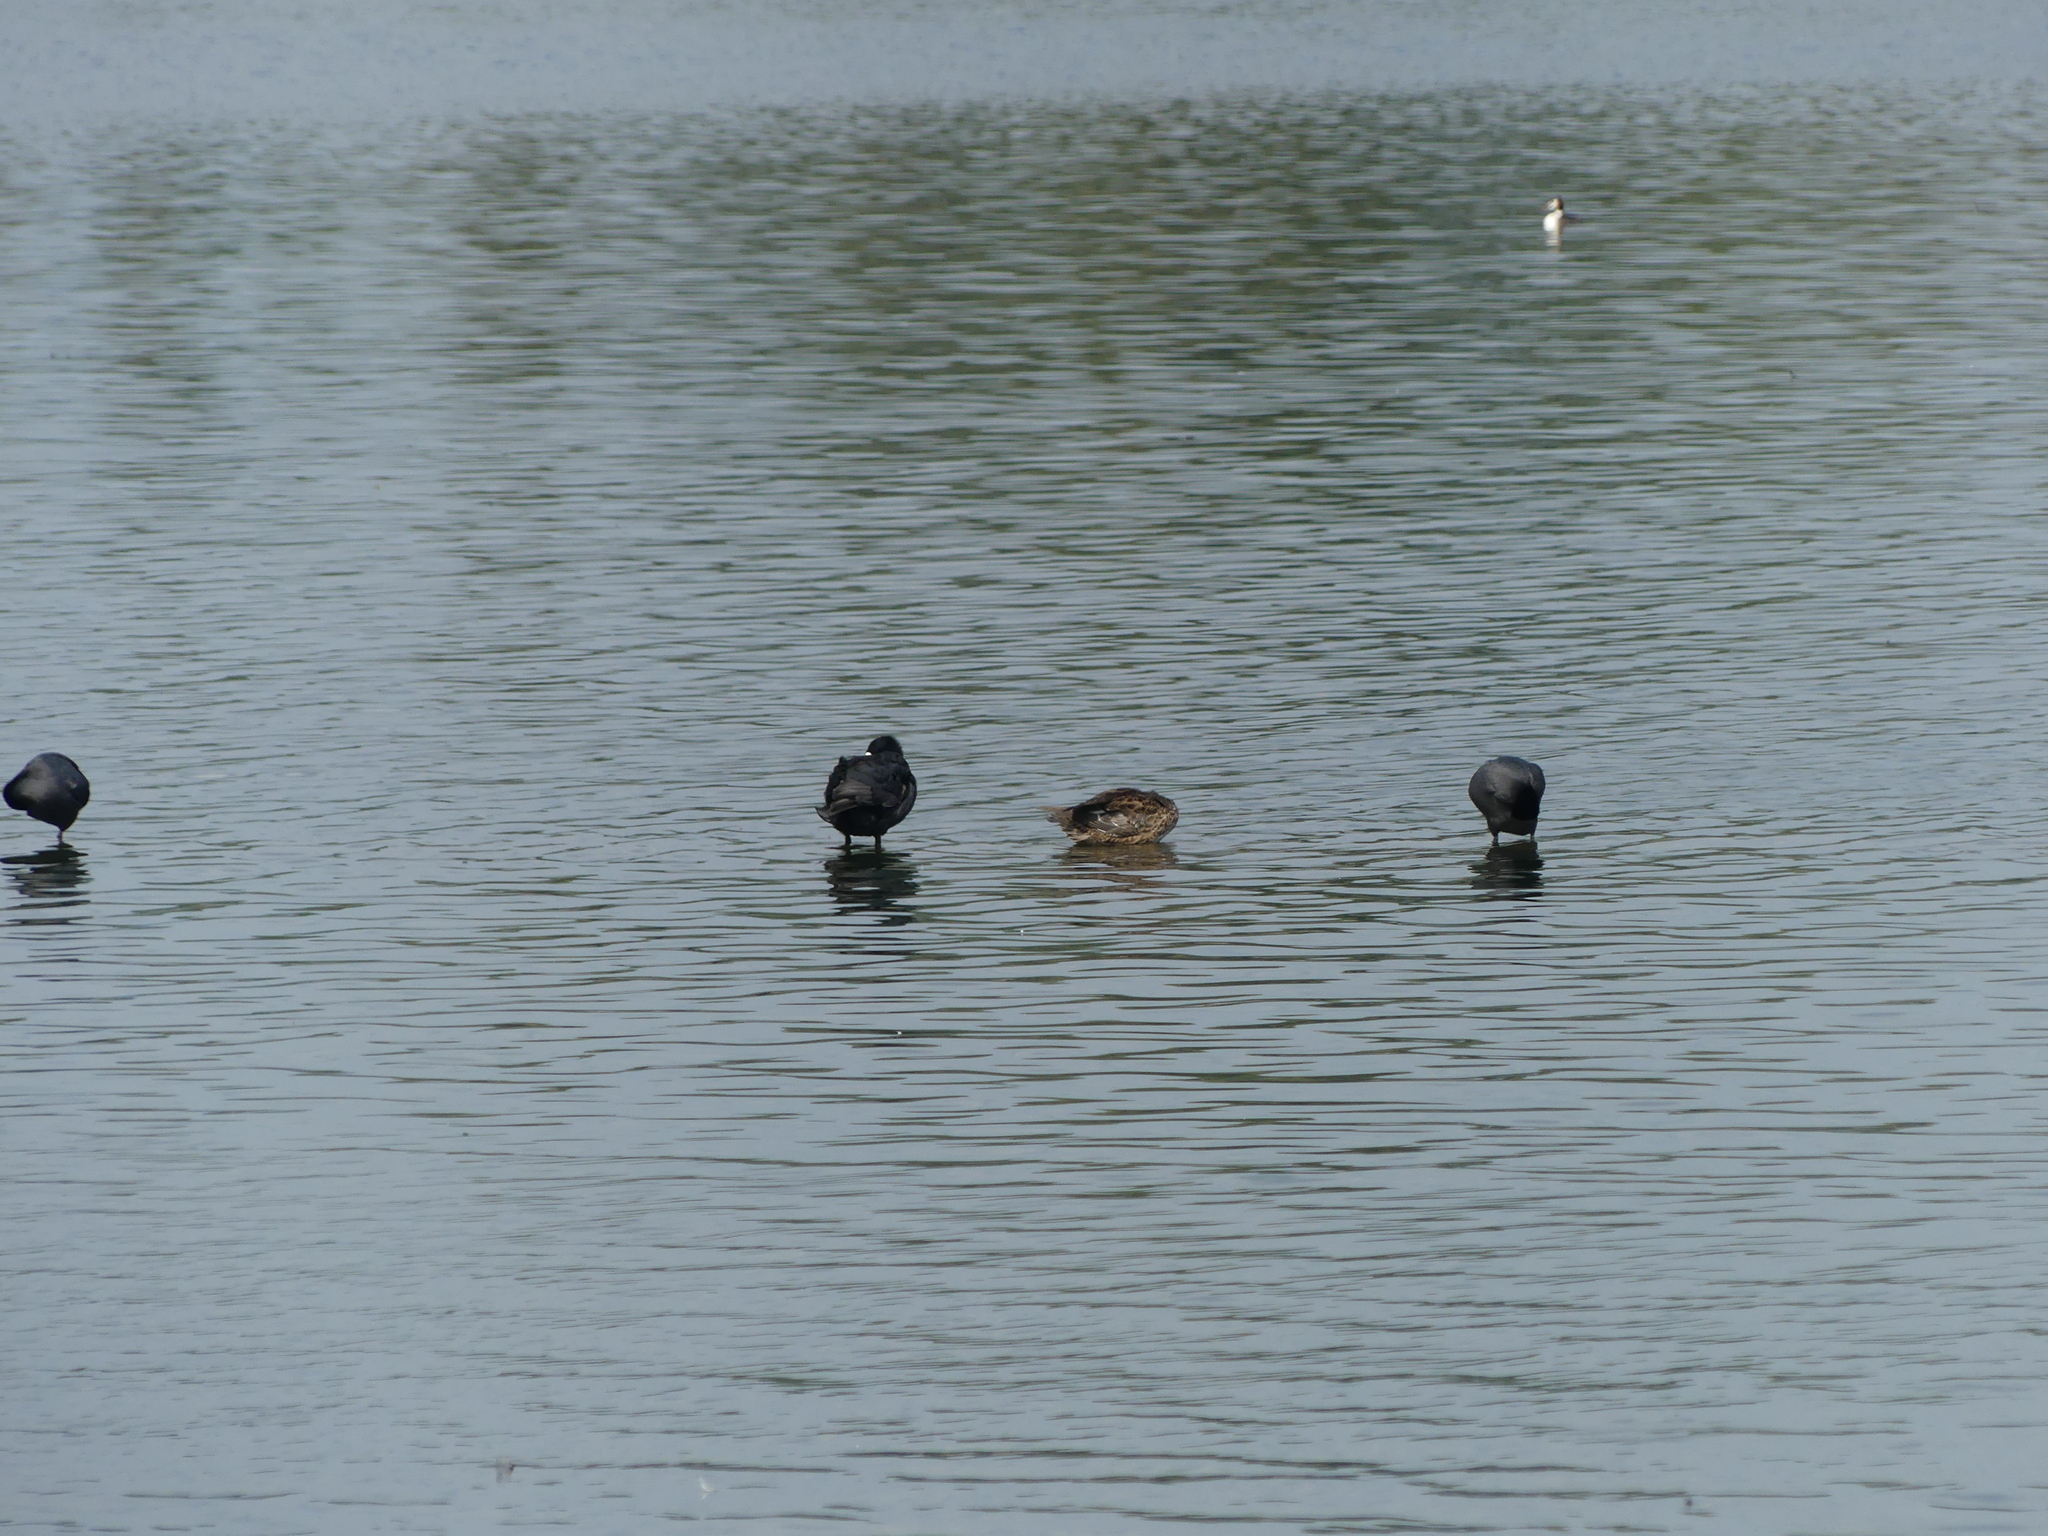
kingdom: Animalia
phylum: Chordata
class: Aves
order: Gruiformes
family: Rallidae
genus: Fulica
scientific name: Fulica atra
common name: Eurasian coot
